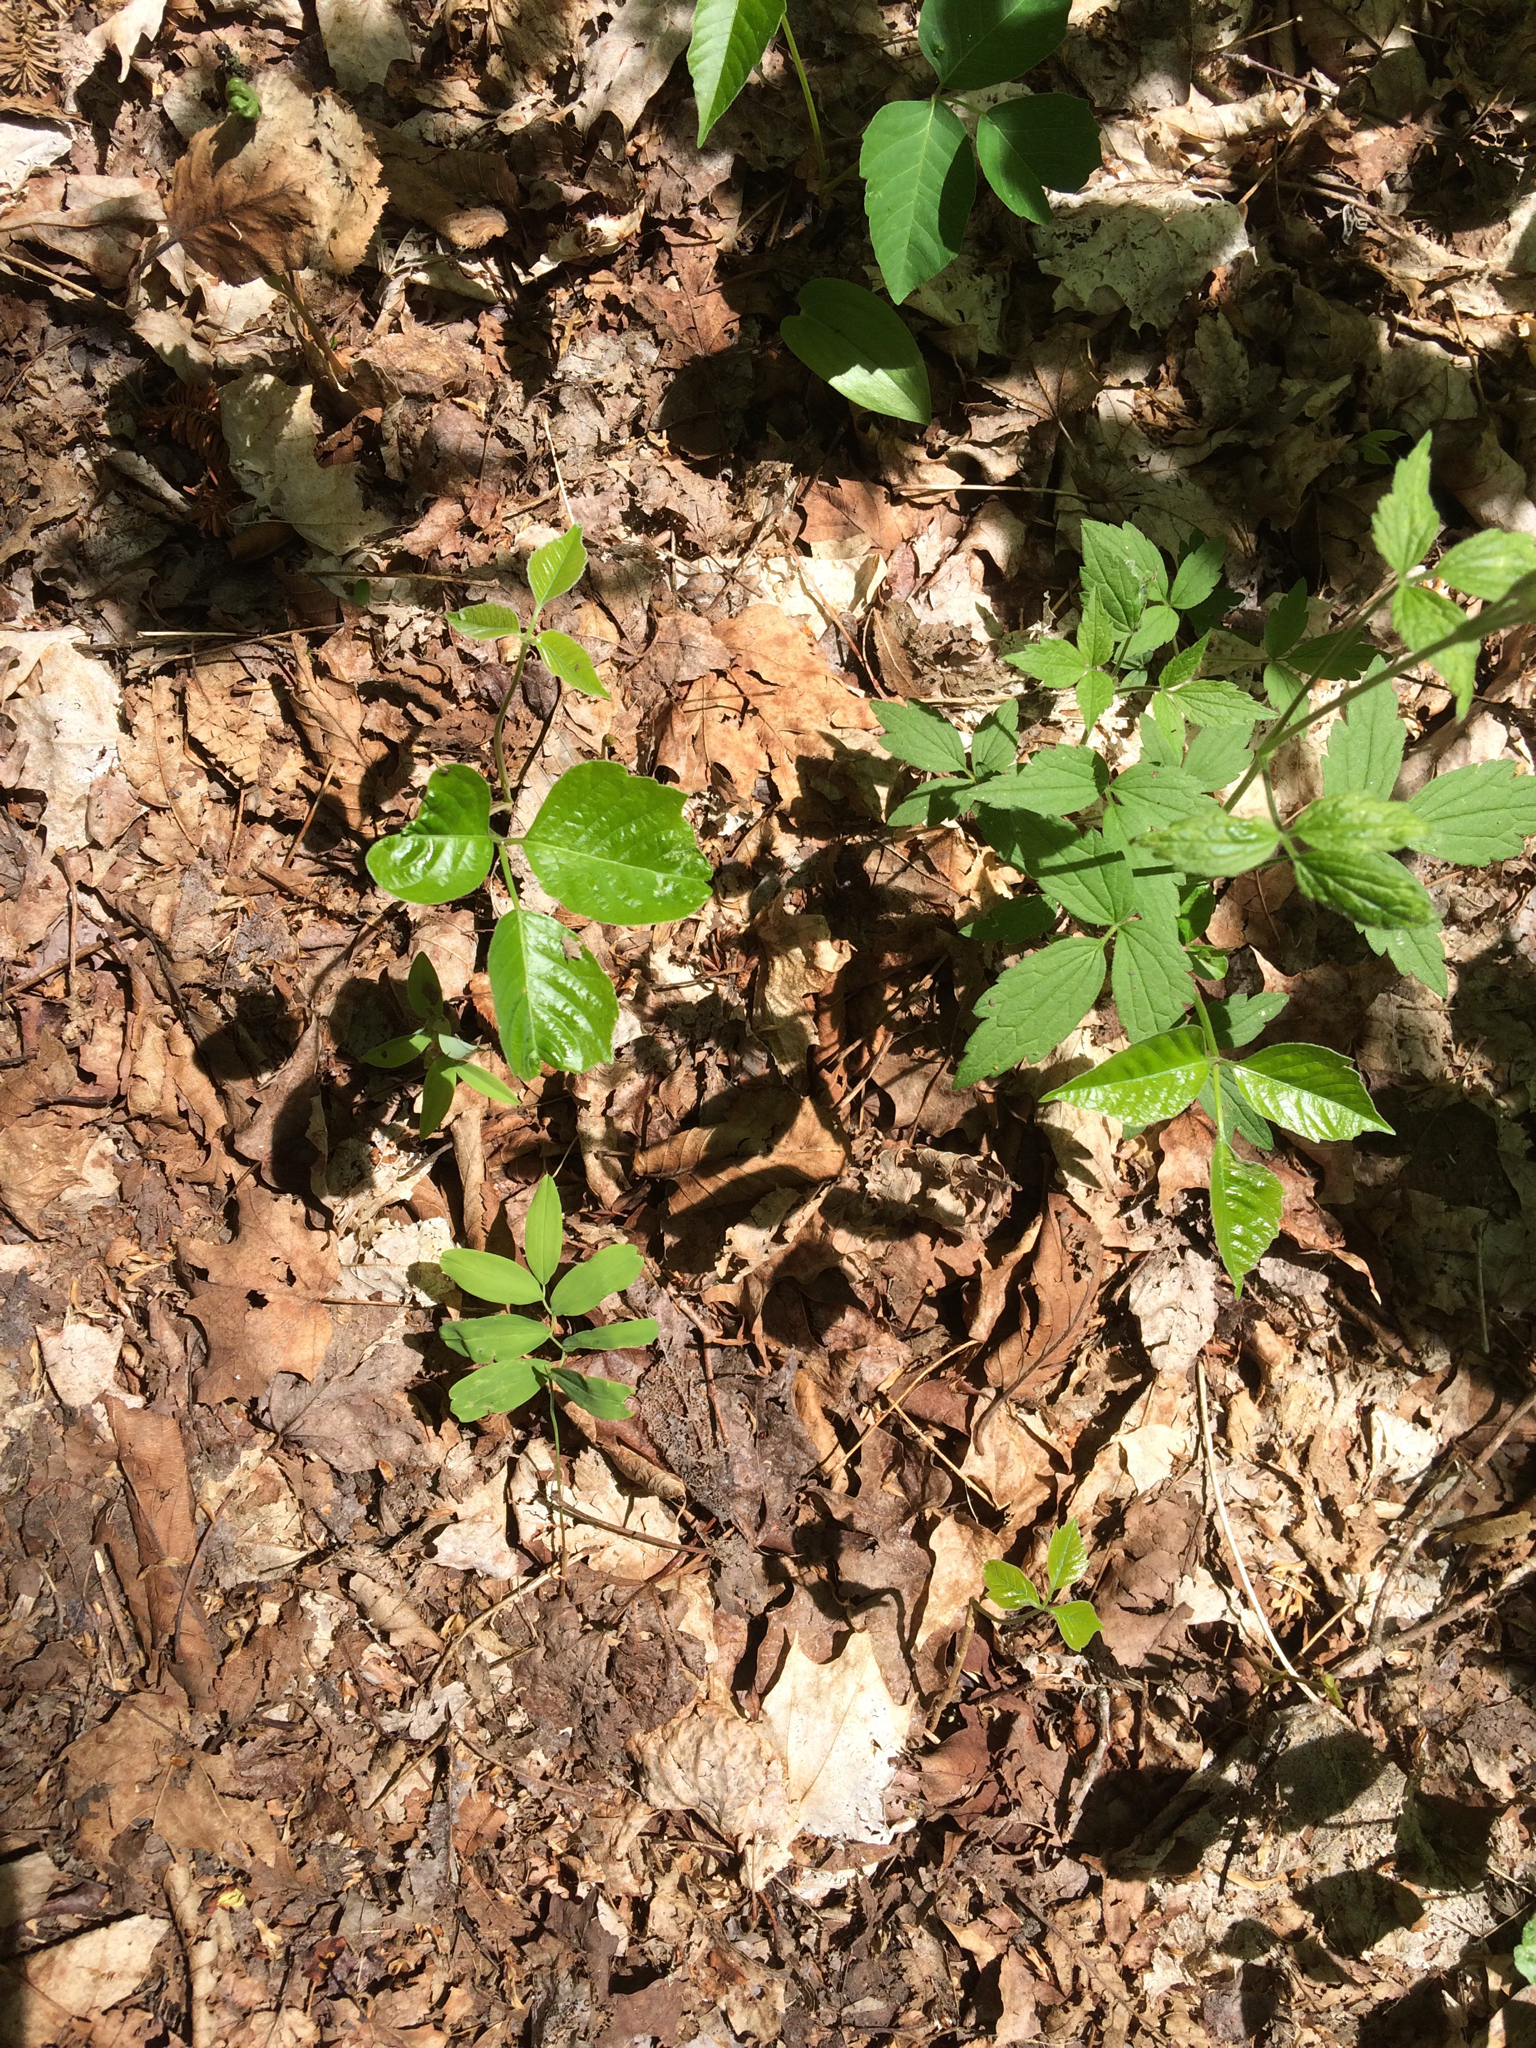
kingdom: Plantae
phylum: Tracheophyta
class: Magnoliopsida
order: Sapindales
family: Anacardiaceae
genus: Toxicodendron
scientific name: Toxicodendron radicans
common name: Poison ivy
